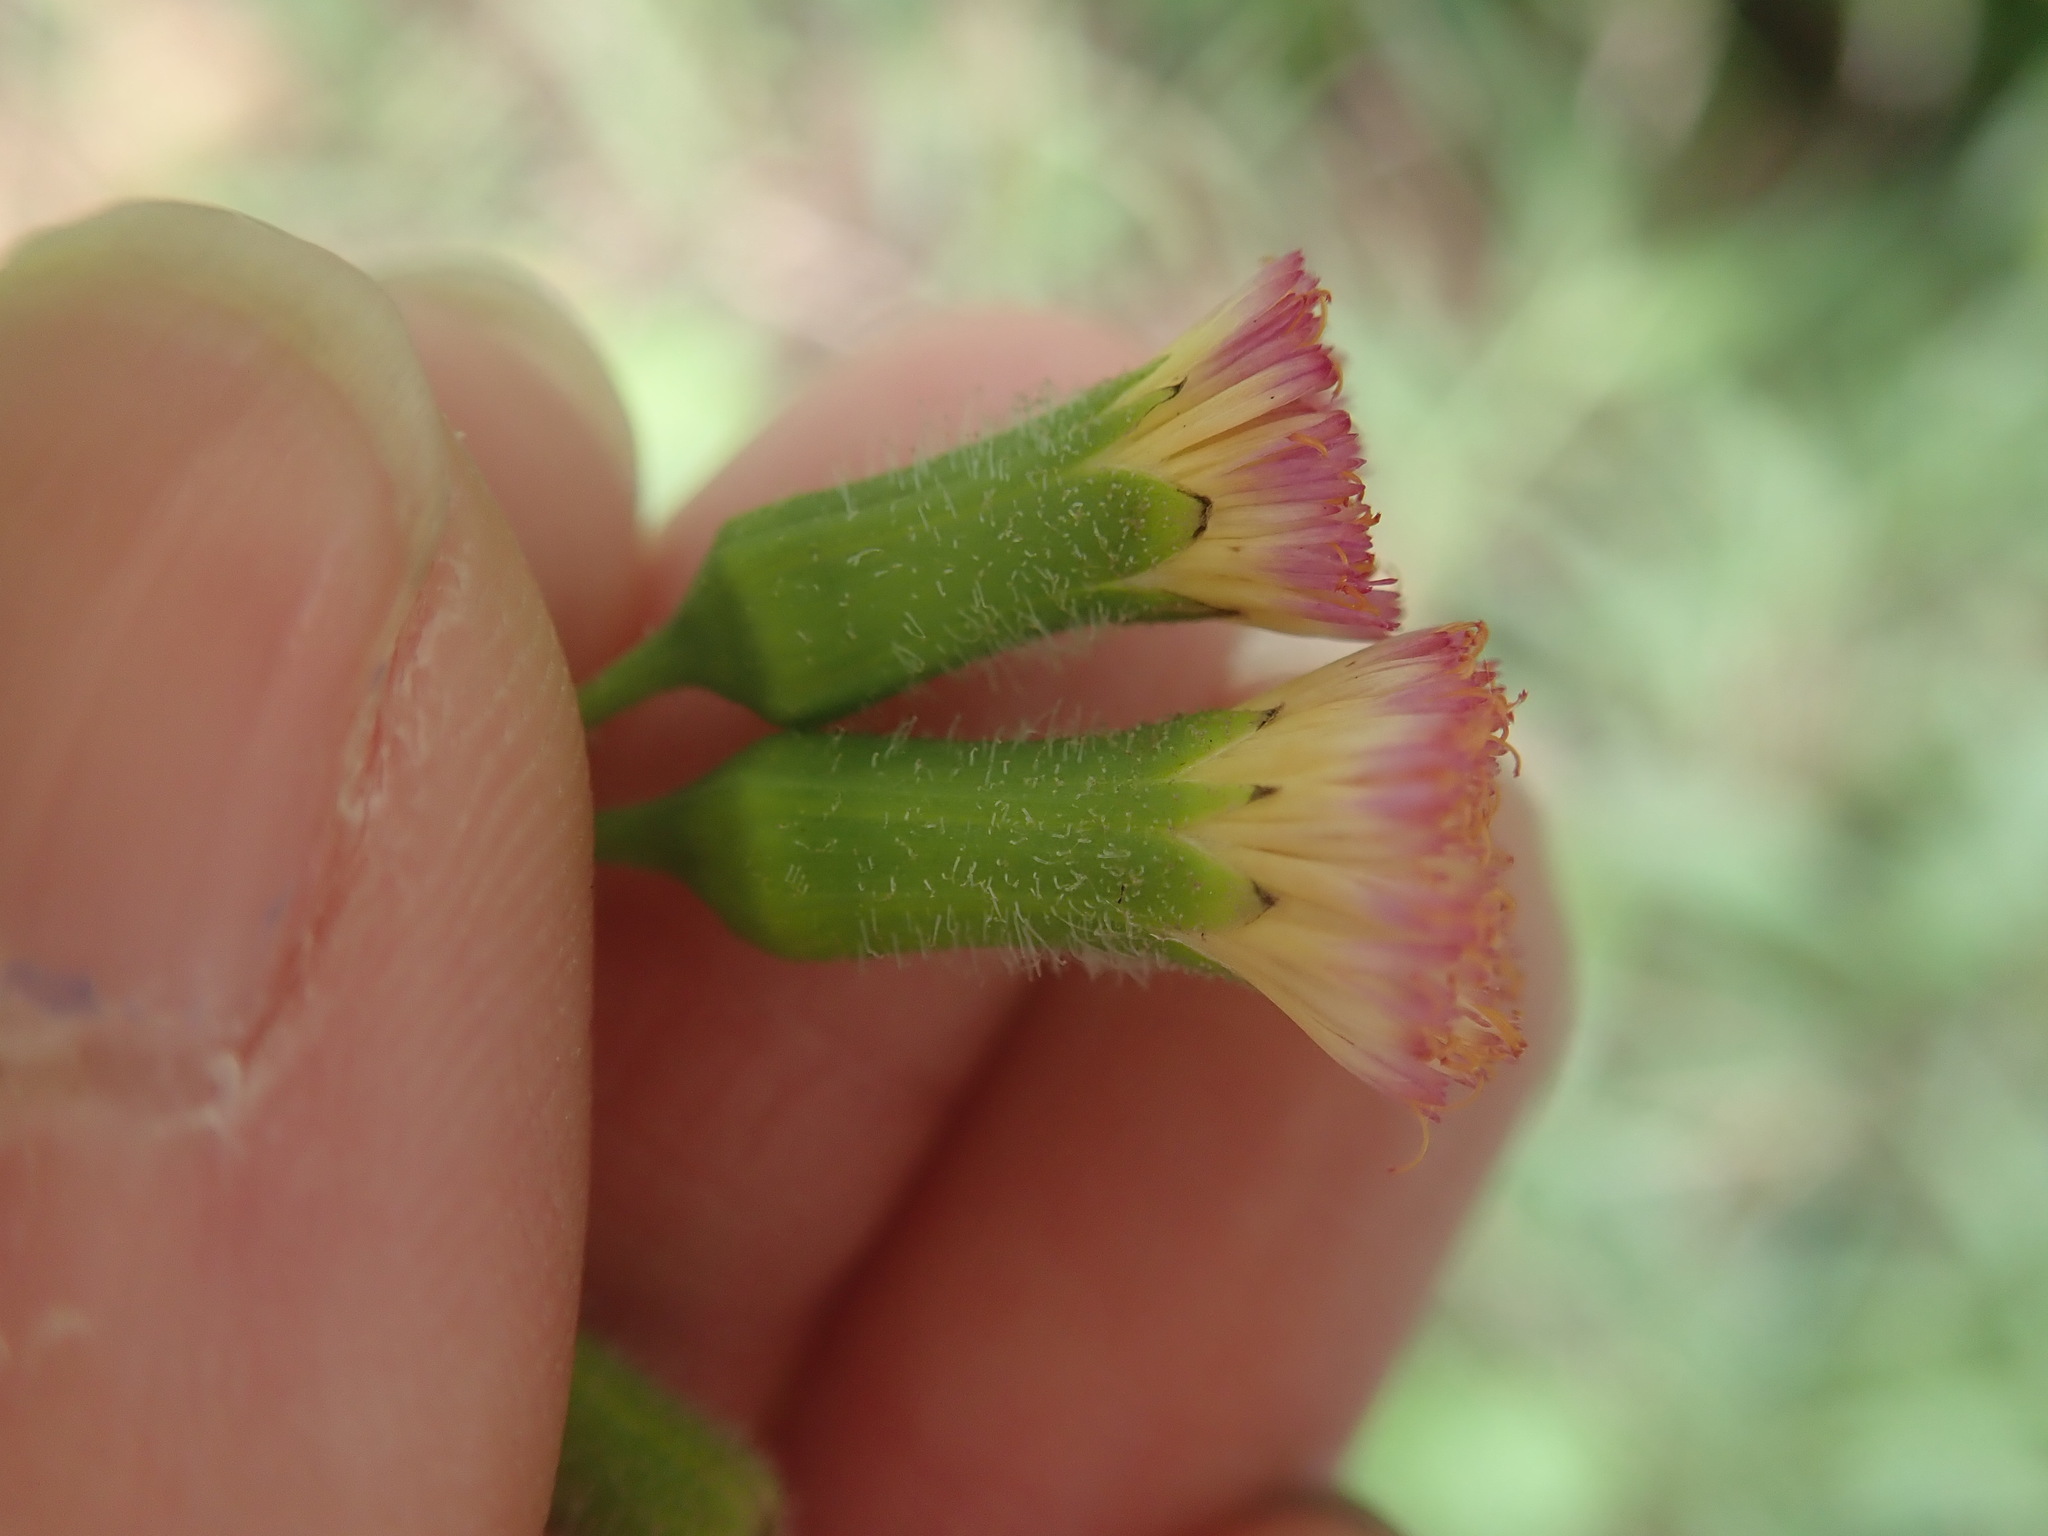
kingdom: Plantae
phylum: Tracheophyta
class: Magnoliopsida
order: Asterales
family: Asteraceae
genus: Emilia
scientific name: Emilia praetermissa
